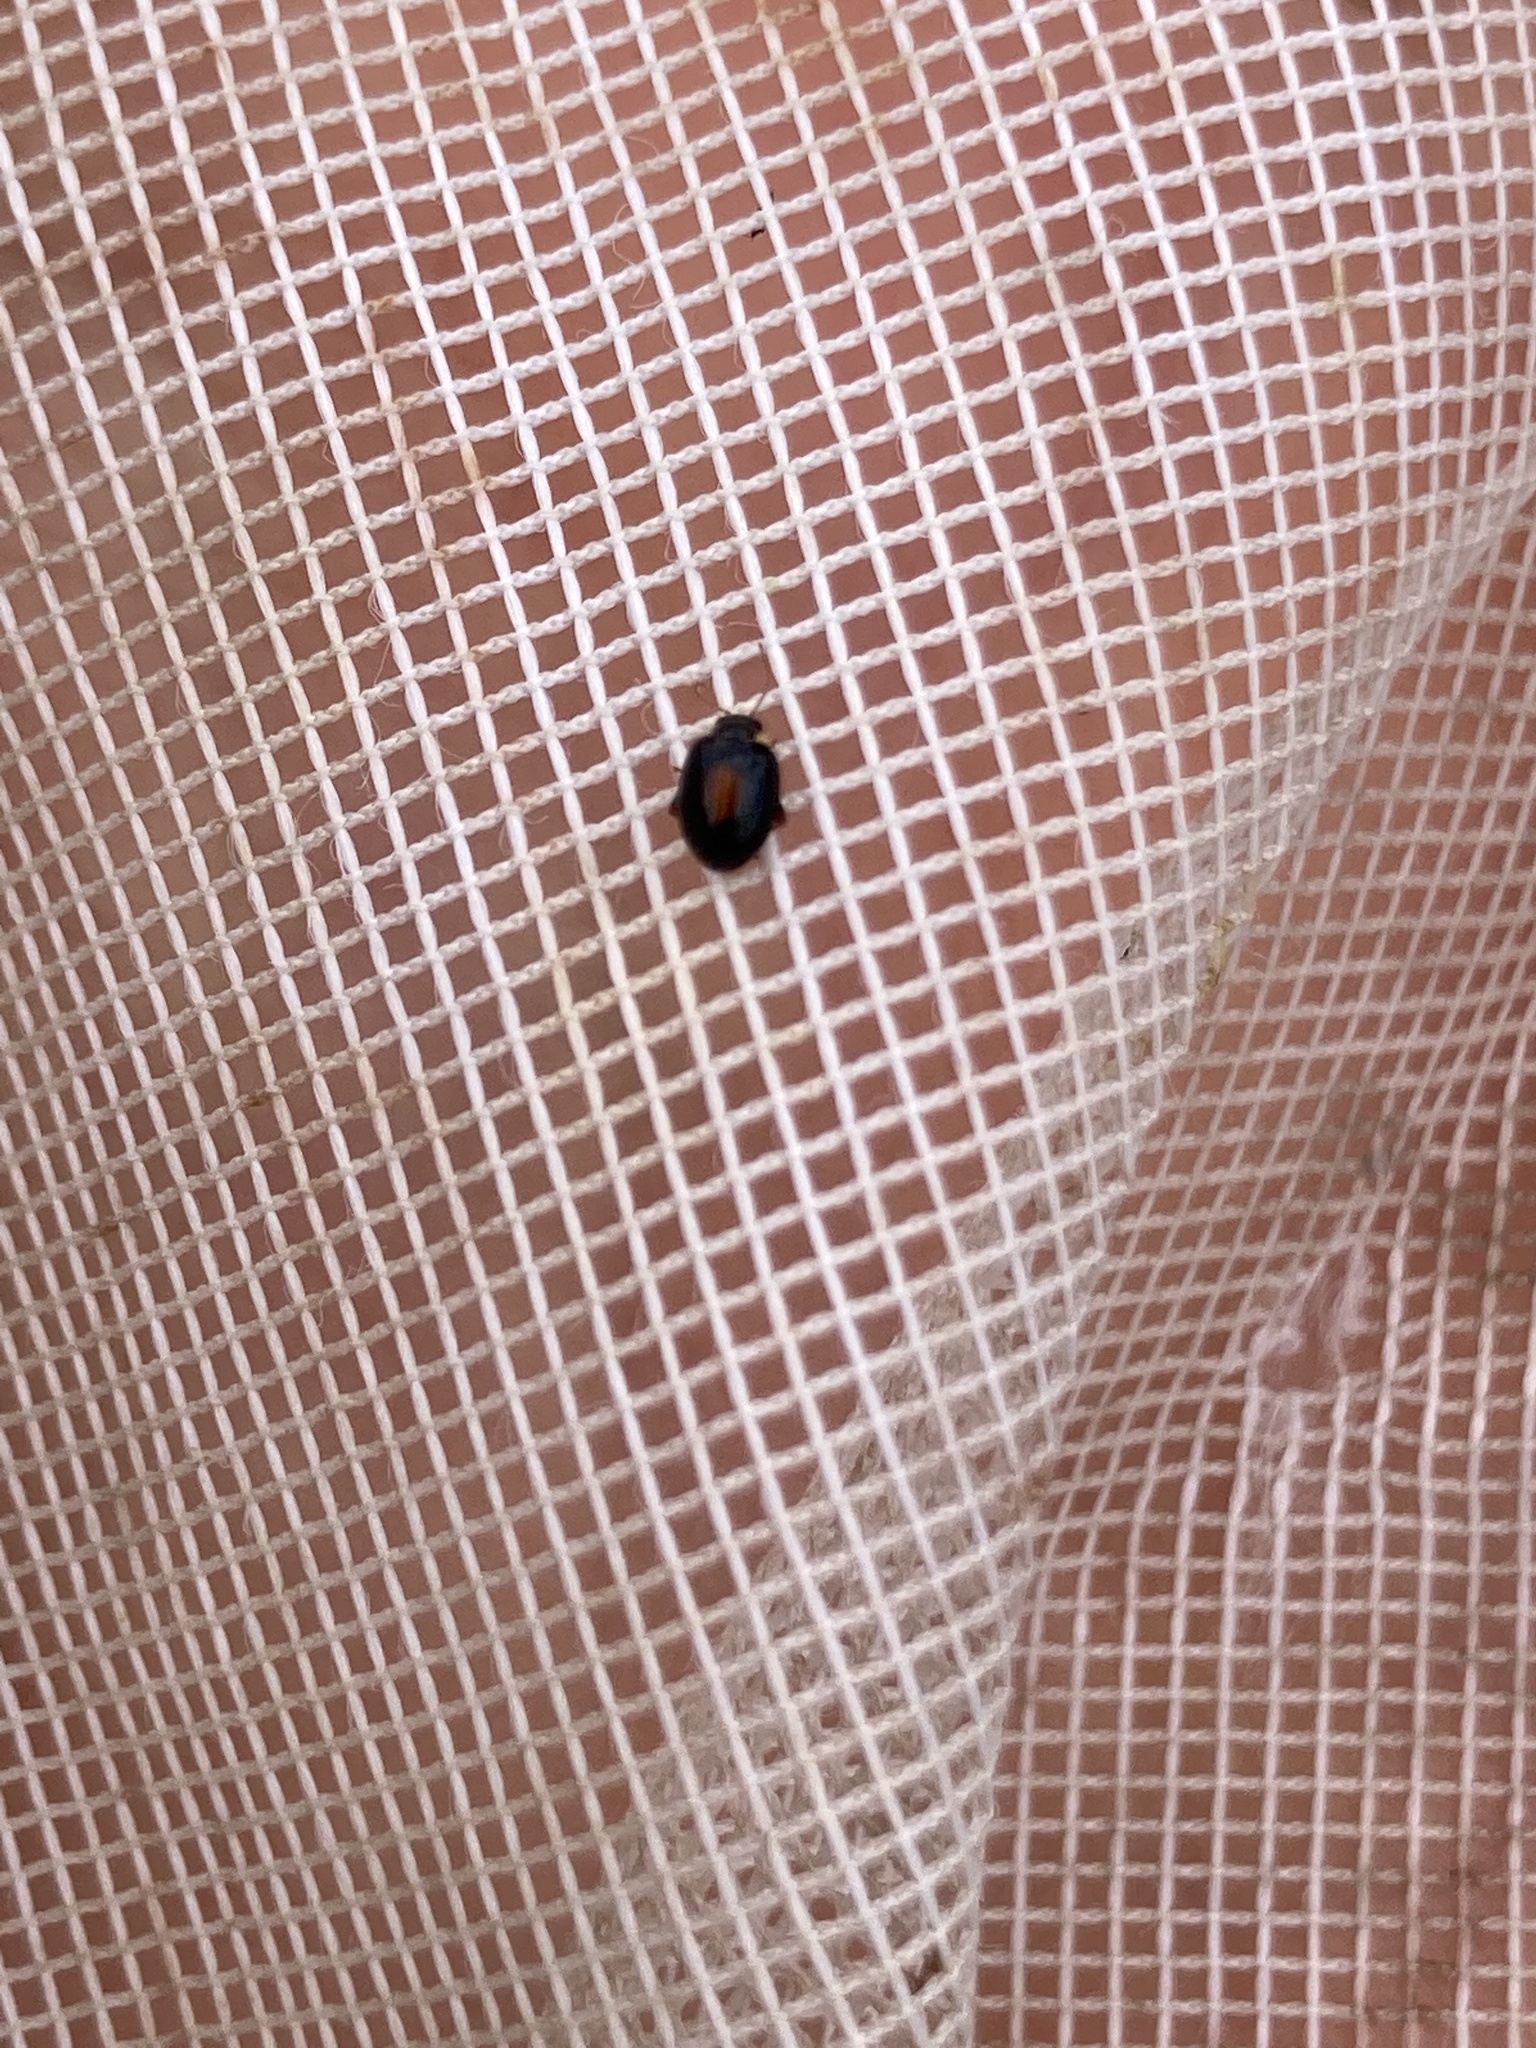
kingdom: Animalia
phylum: Arthropoda
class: Insecta
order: Coleoptera
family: Scirtidae
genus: Scirtes
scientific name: Scirtes orbiculatus
